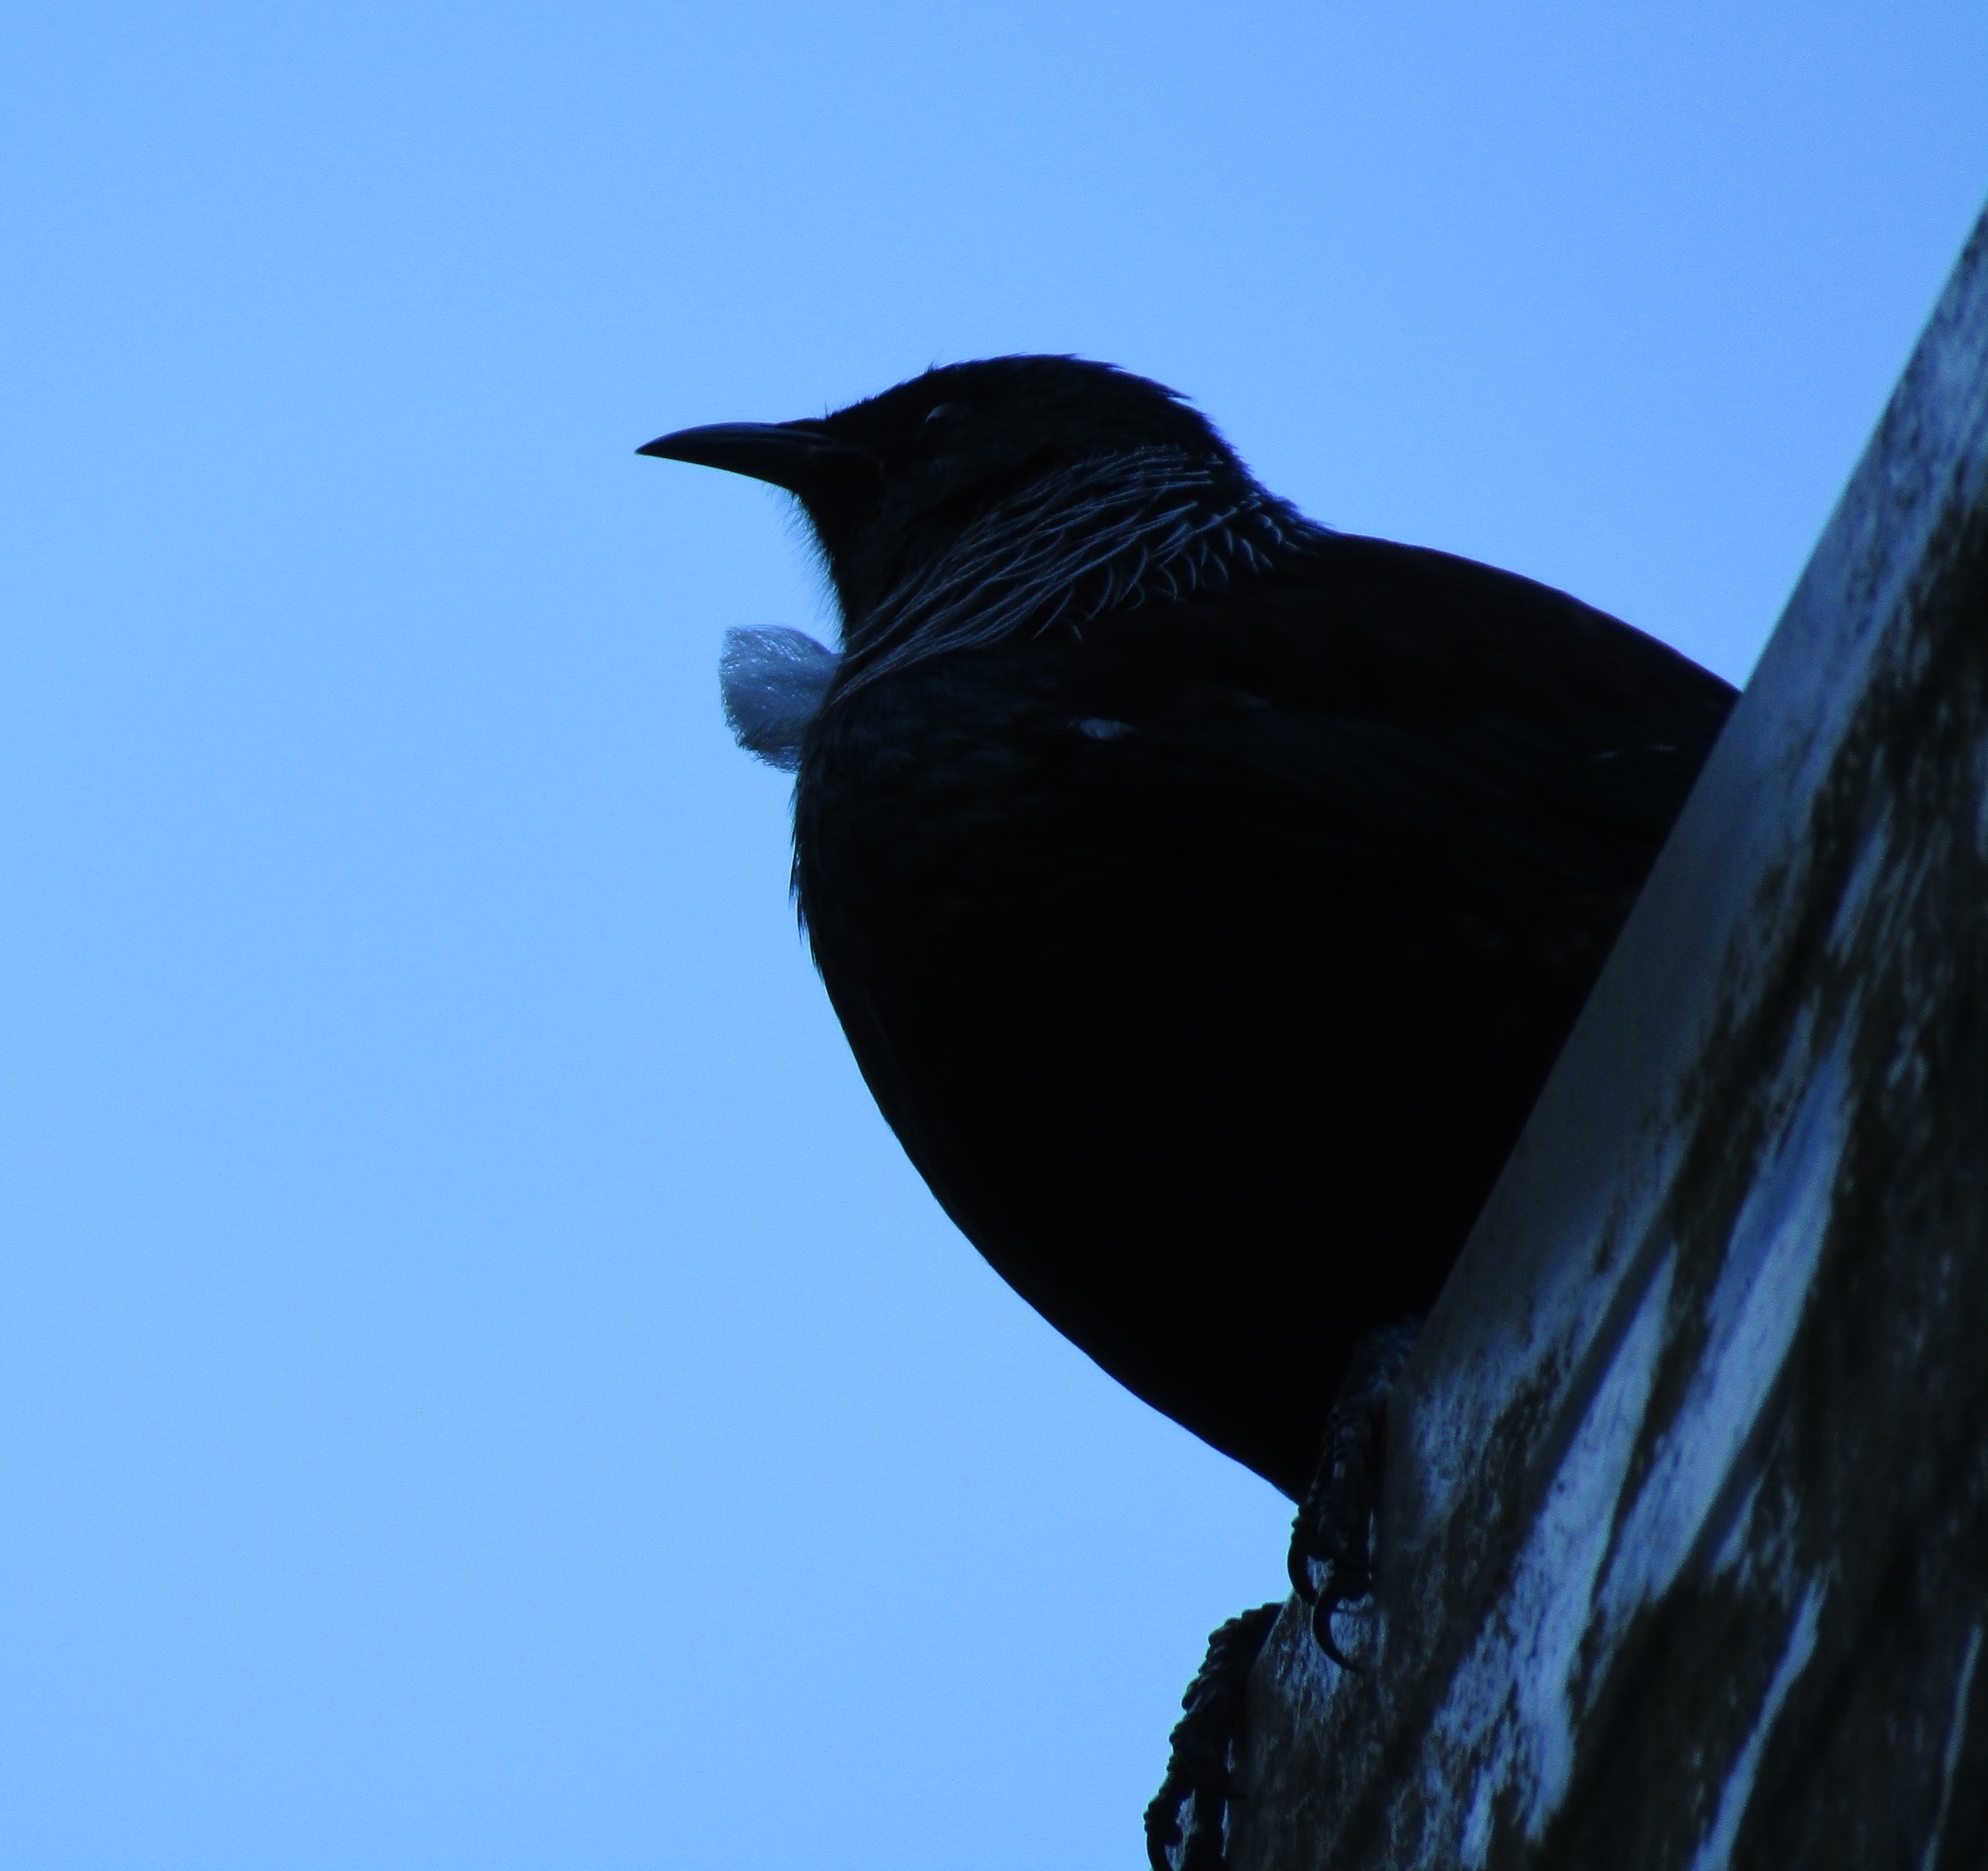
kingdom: Animalia
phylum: Chordata
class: Aves
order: Passeriformes
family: Meliphagidae
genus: Prosthemadera
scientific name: Prosthemadera novaeseelandiae
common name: Tui
